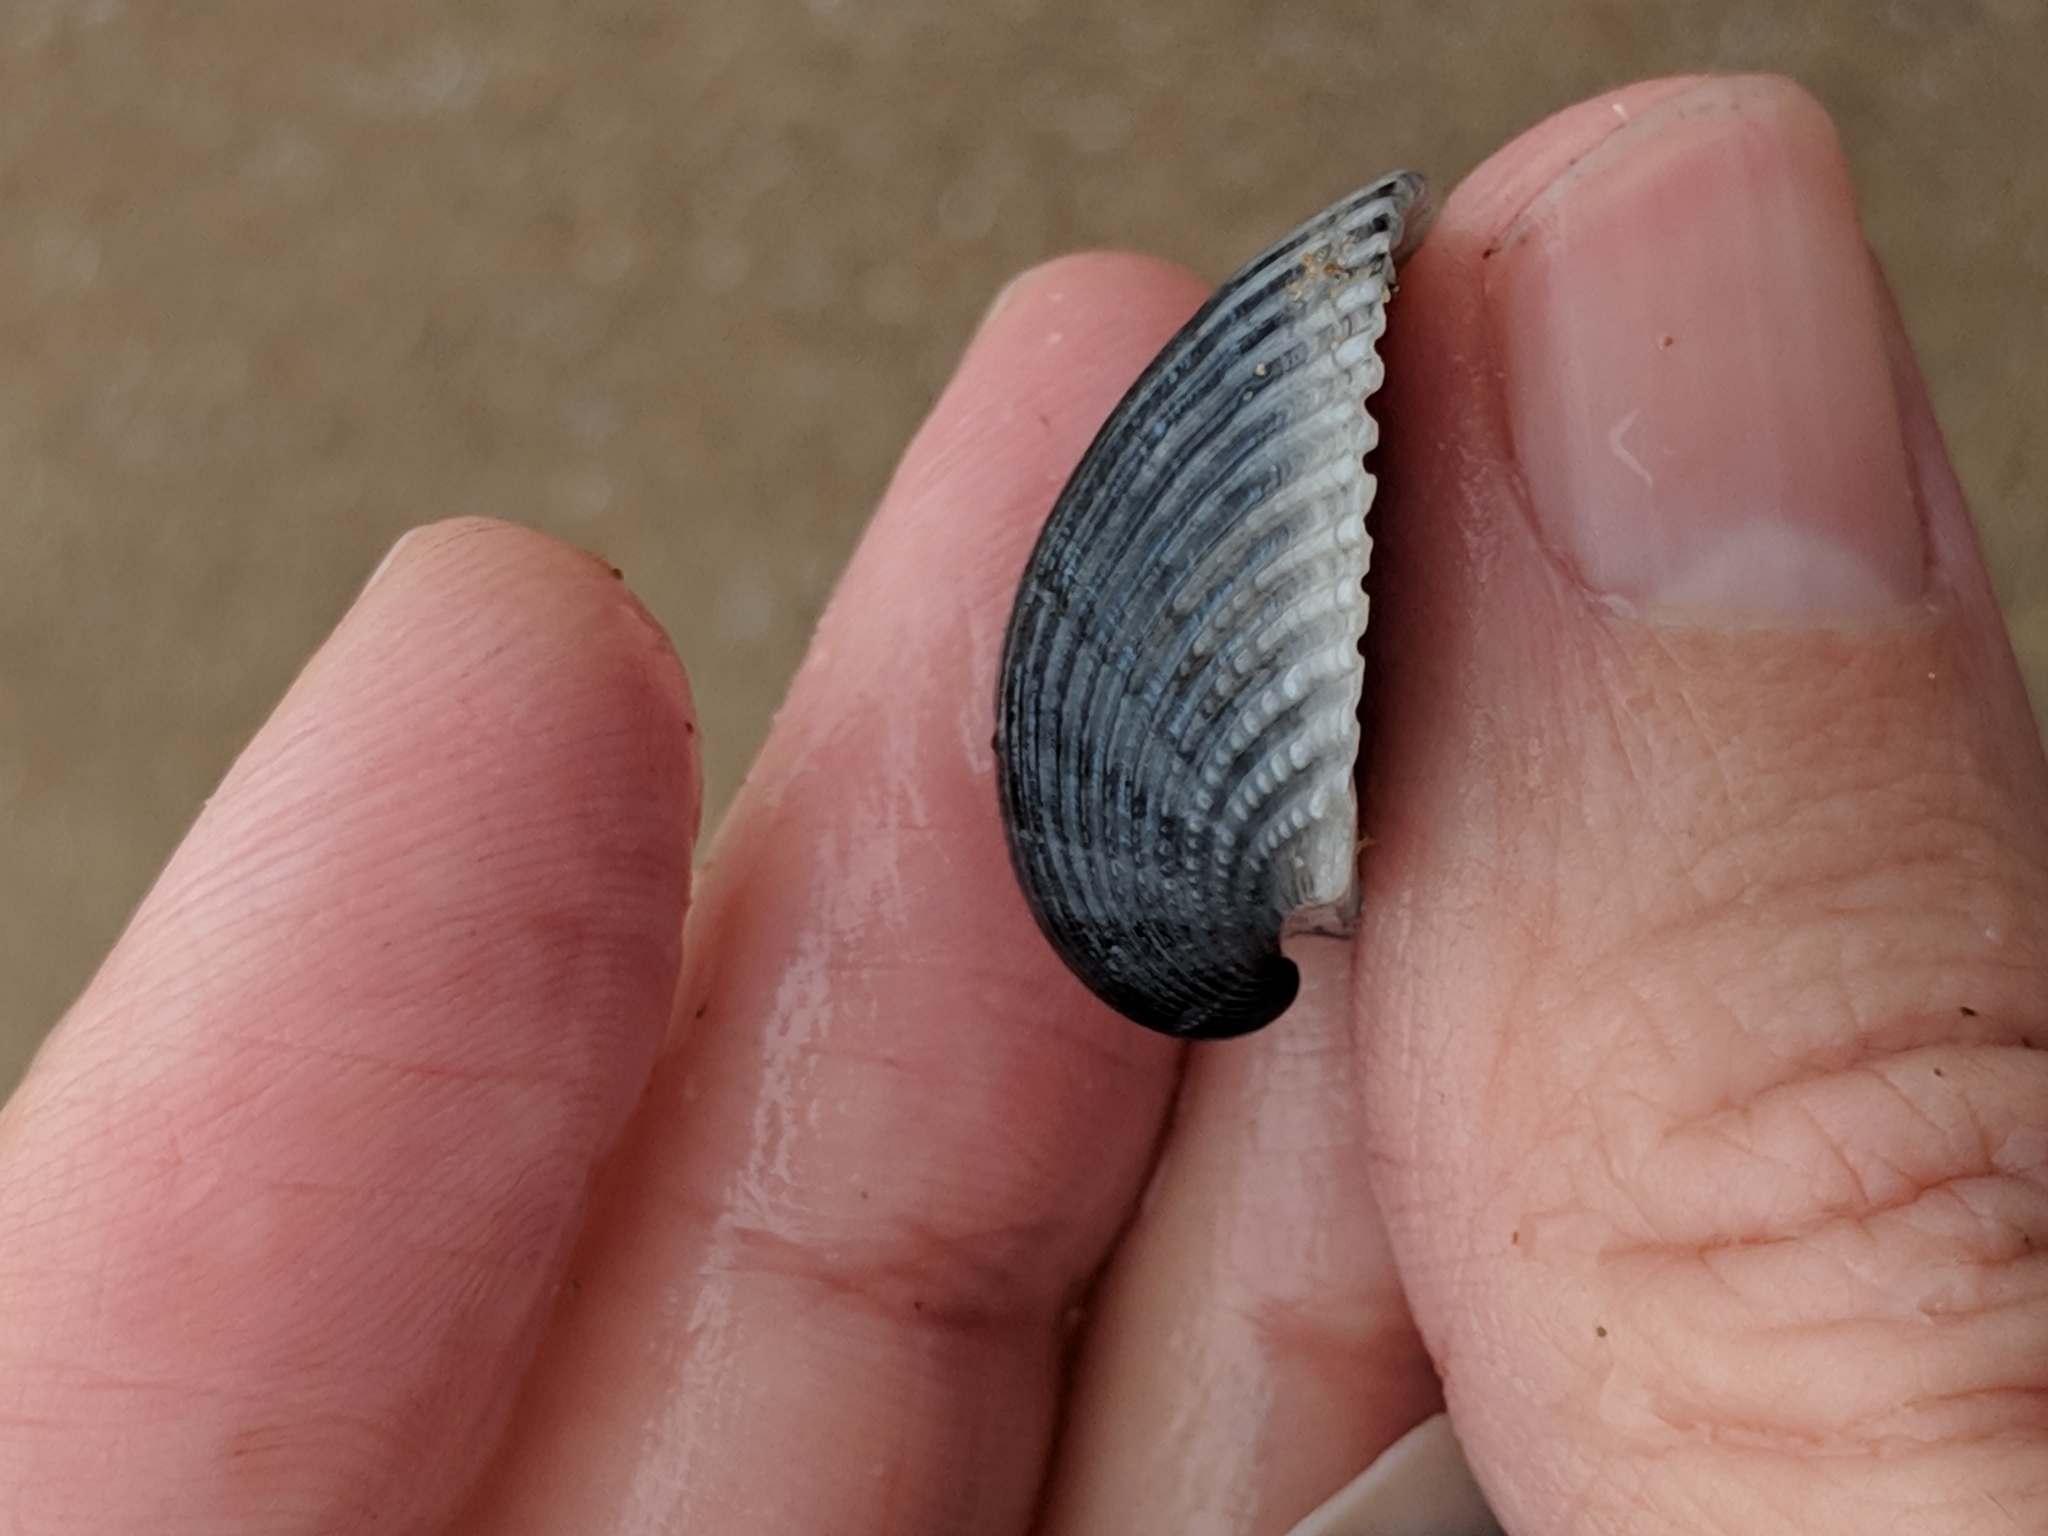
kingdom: Animalia
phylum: Mollusca
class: Bivalvia
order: Arcida
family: Arcidae
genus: Anadara
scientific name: Anadara chemnitzii
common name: Chemnitz's triangular ark
